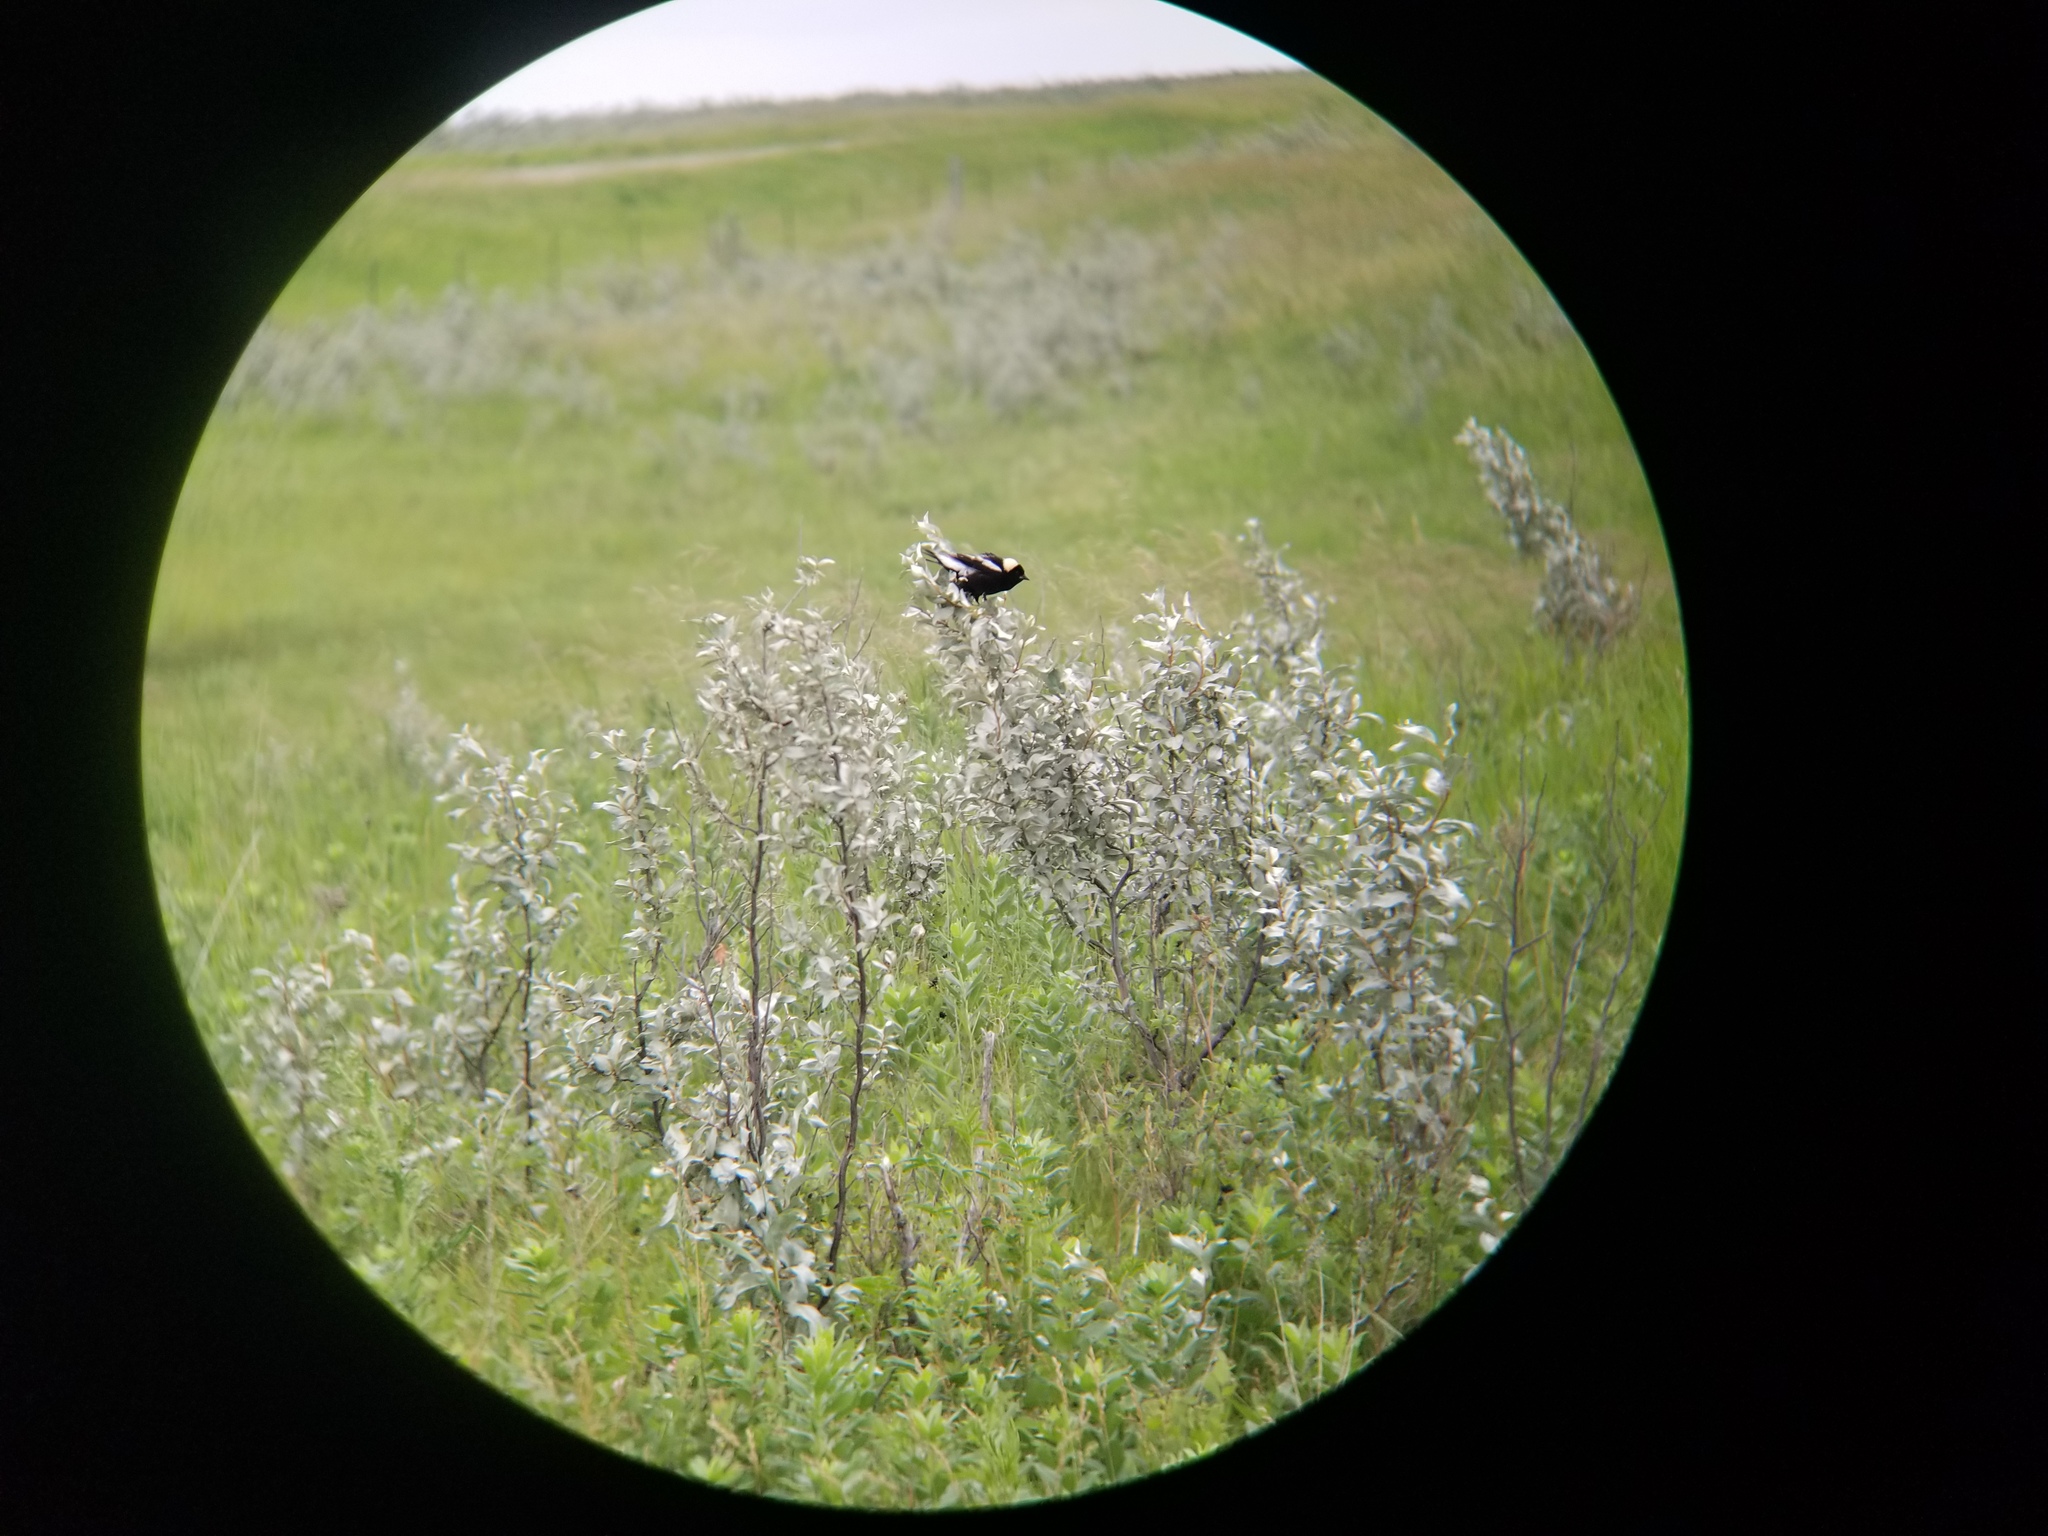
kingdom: Animalia
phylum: Chordata
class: Aves
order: Passeriformes
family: Icteridae
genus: Dolichonyx
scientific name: Dolichonyx oryzivorus
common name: Bobolink
